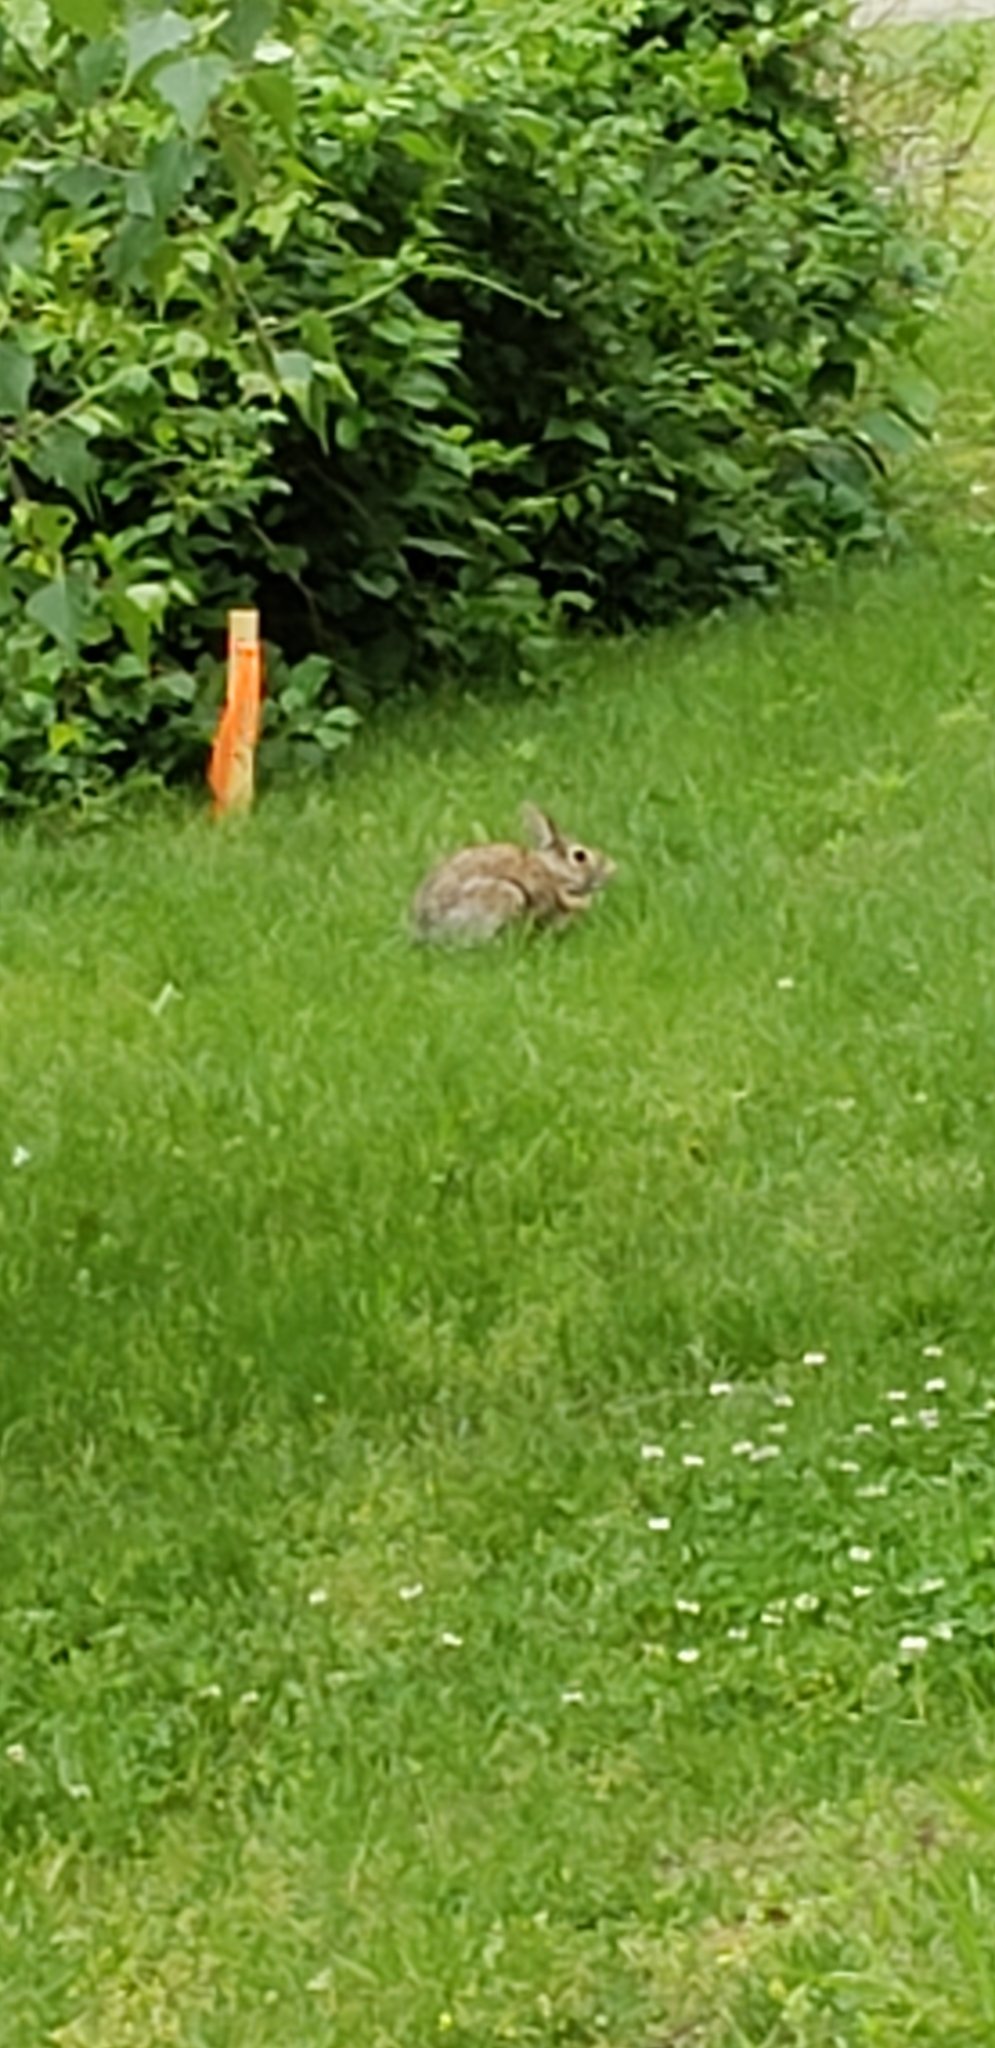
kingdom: Animalia
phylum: Chordata
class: Mammalia
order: Lagomorpha
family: Leporidae
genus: Sylvilagus
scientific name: Sylvilagus floridanus
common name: Eastern cottontail
